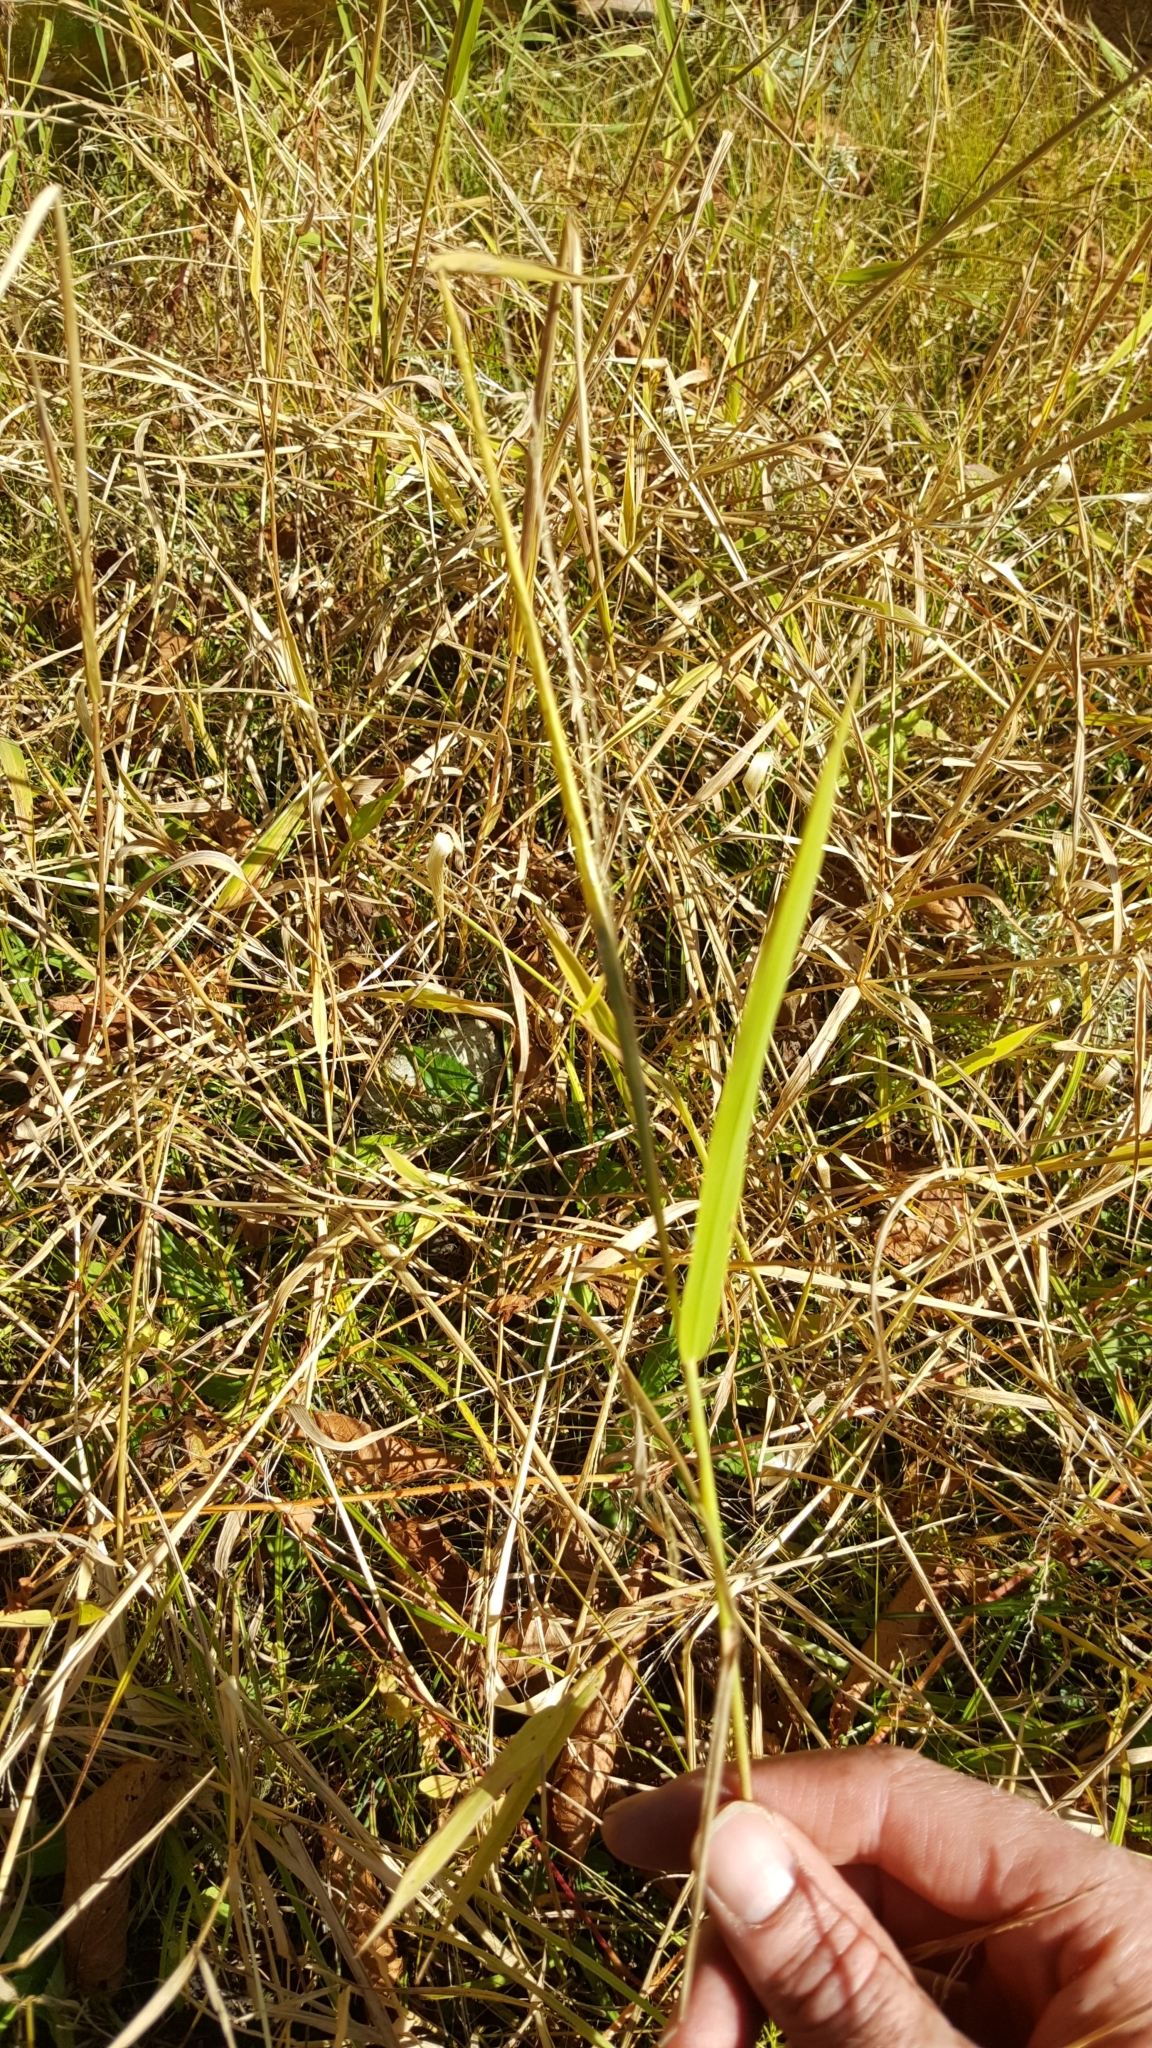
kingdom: Plantae
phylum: Tracheophyta
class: Liliopsida
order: Poales
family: Poaceae
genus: Leersia
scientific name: Leersia oryzoides
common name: Cut-grass
